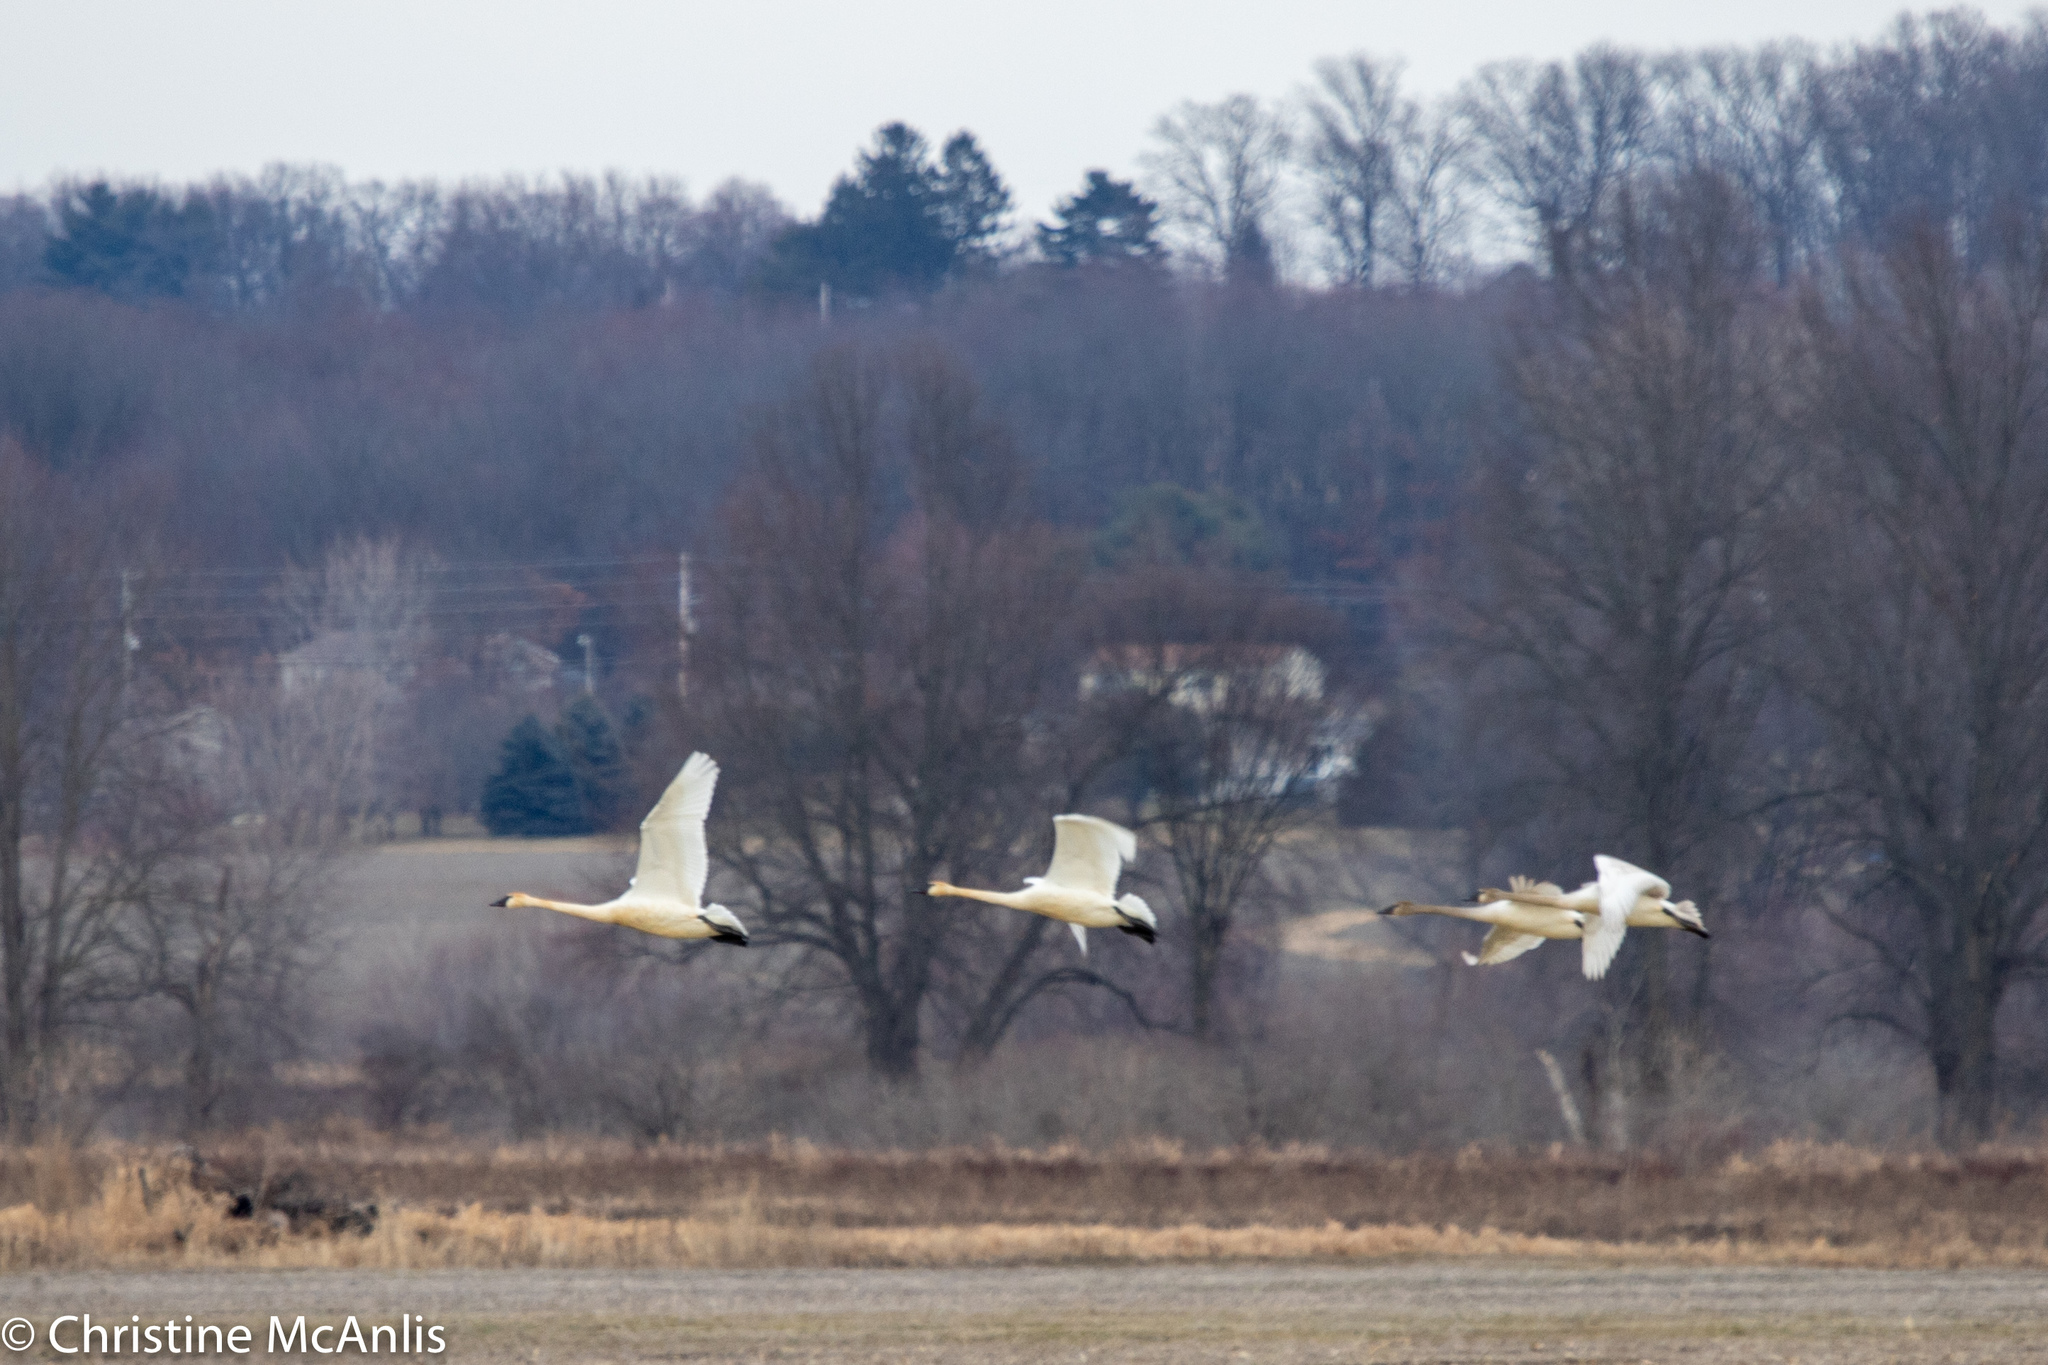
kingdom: Animalia
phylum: Chordata
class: Aves
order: Anseriformes
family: Anatidae
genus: Cygnus
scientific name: Cygnus buccinator
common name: Trumpeter swan
